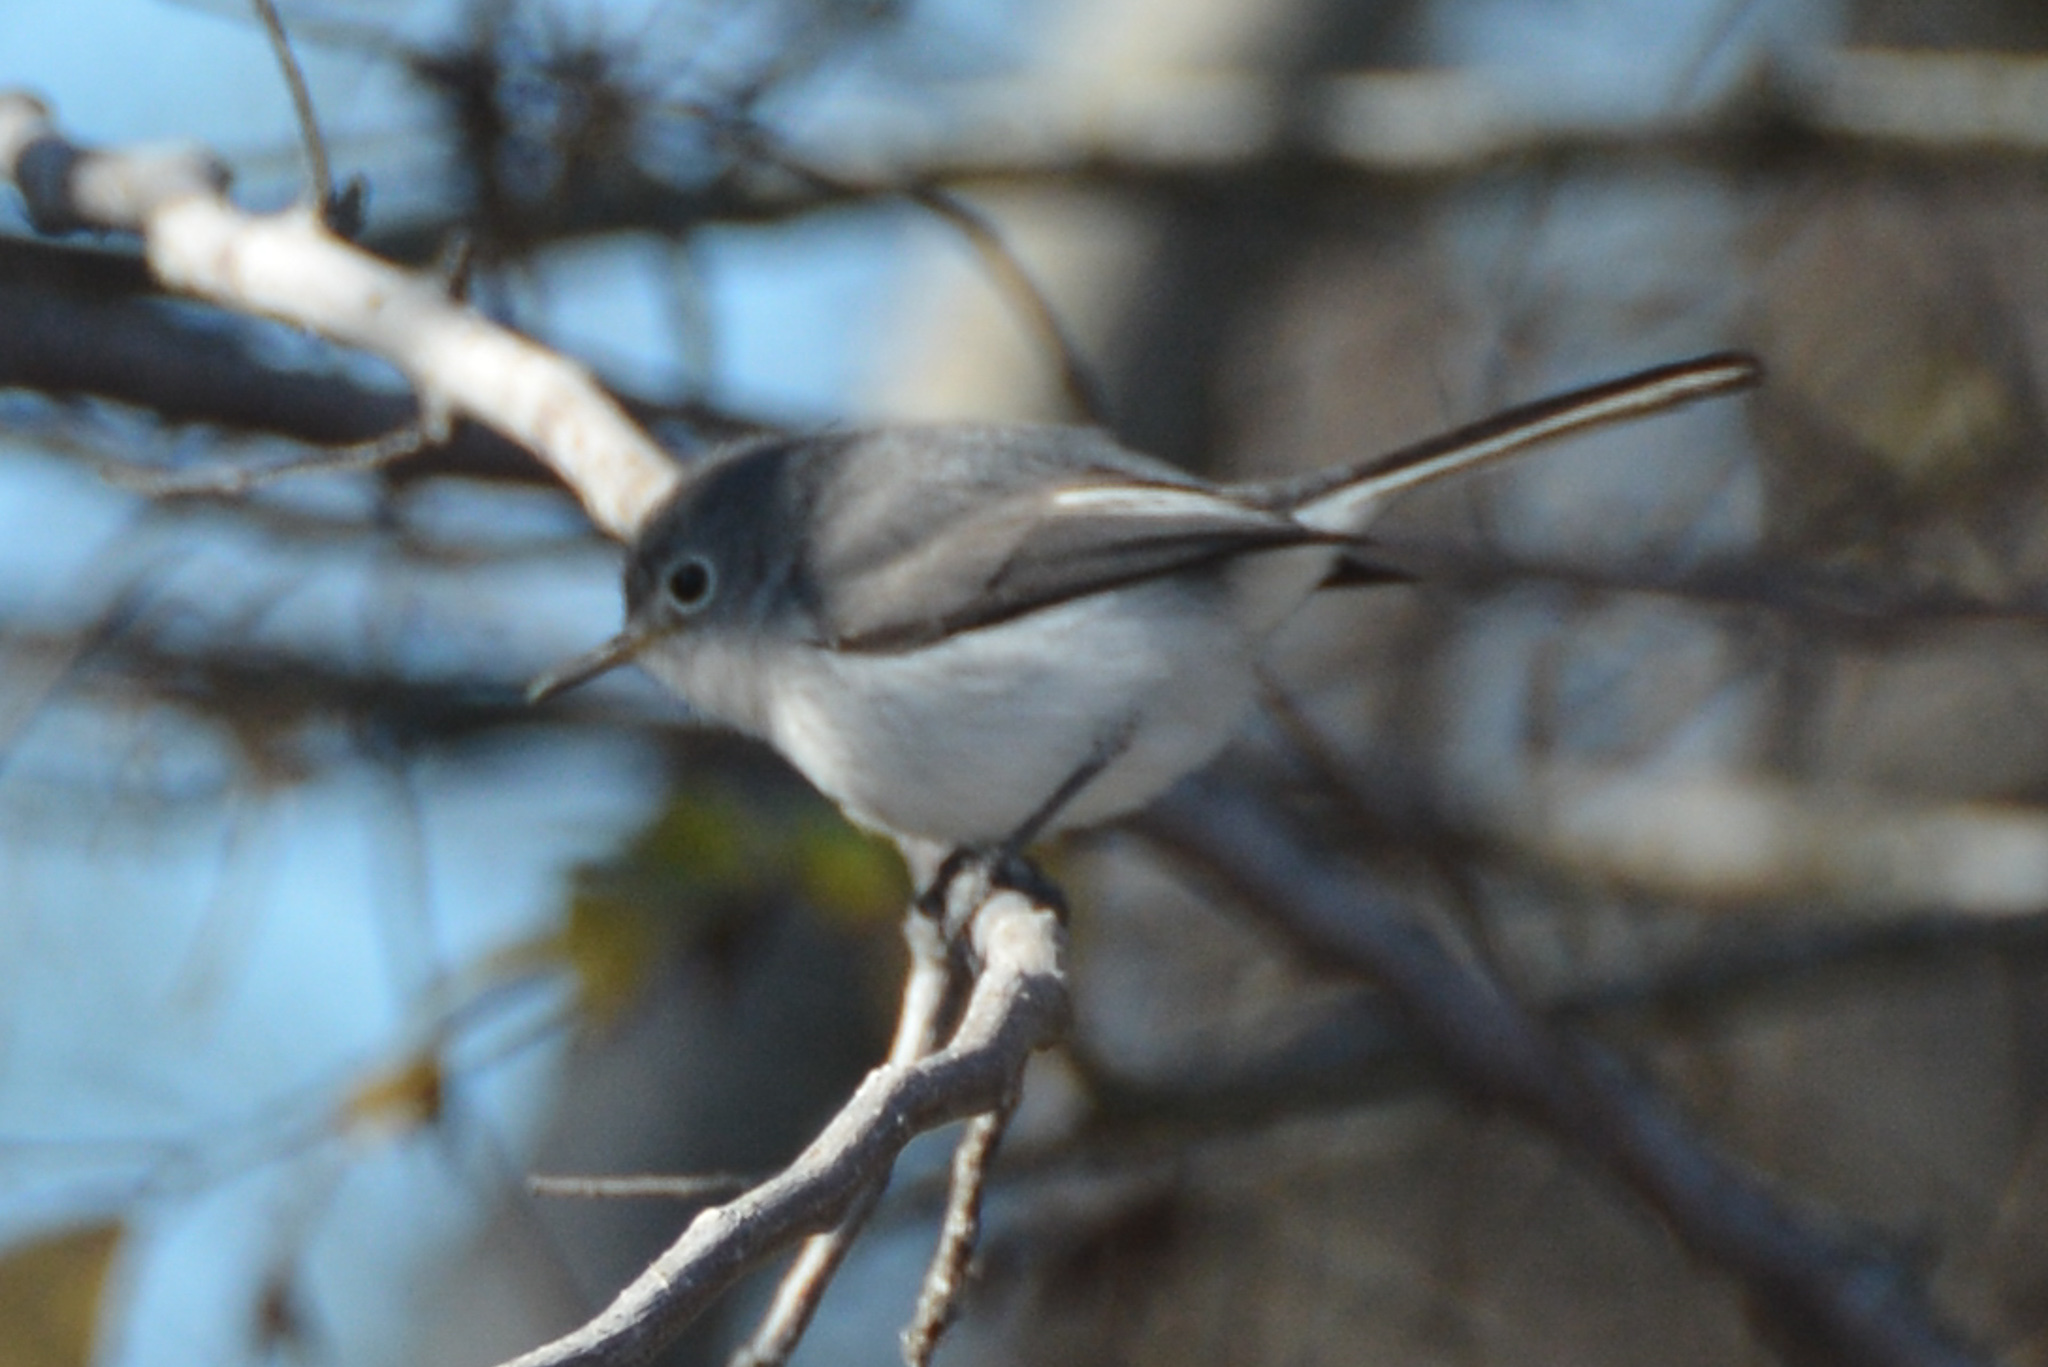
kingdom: Animalia
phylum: Chordata
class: Aves
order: Passeriformes
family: Polioptilidae
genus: Polioptila
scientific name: Polioptila caerulea
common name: Blue-gray gnatcatcher
